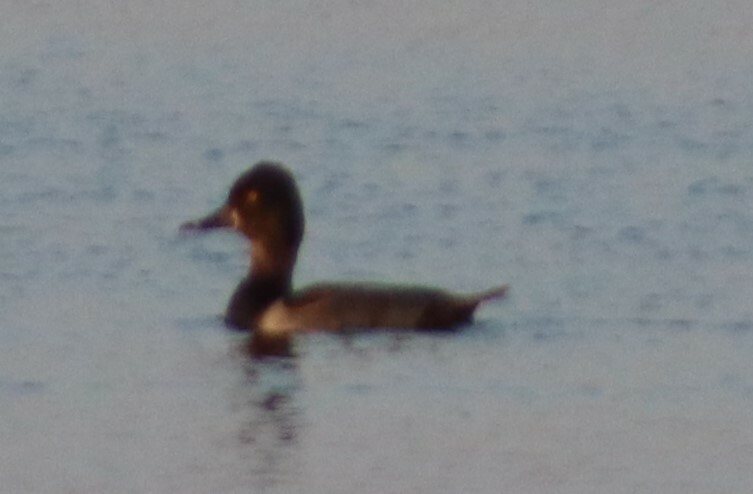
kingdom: Animalia
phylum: Chordata
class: Aves
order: Anseriformes
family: Anatidae
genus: Aythya
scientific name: Aythya collaris
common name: Ring-necked duck
